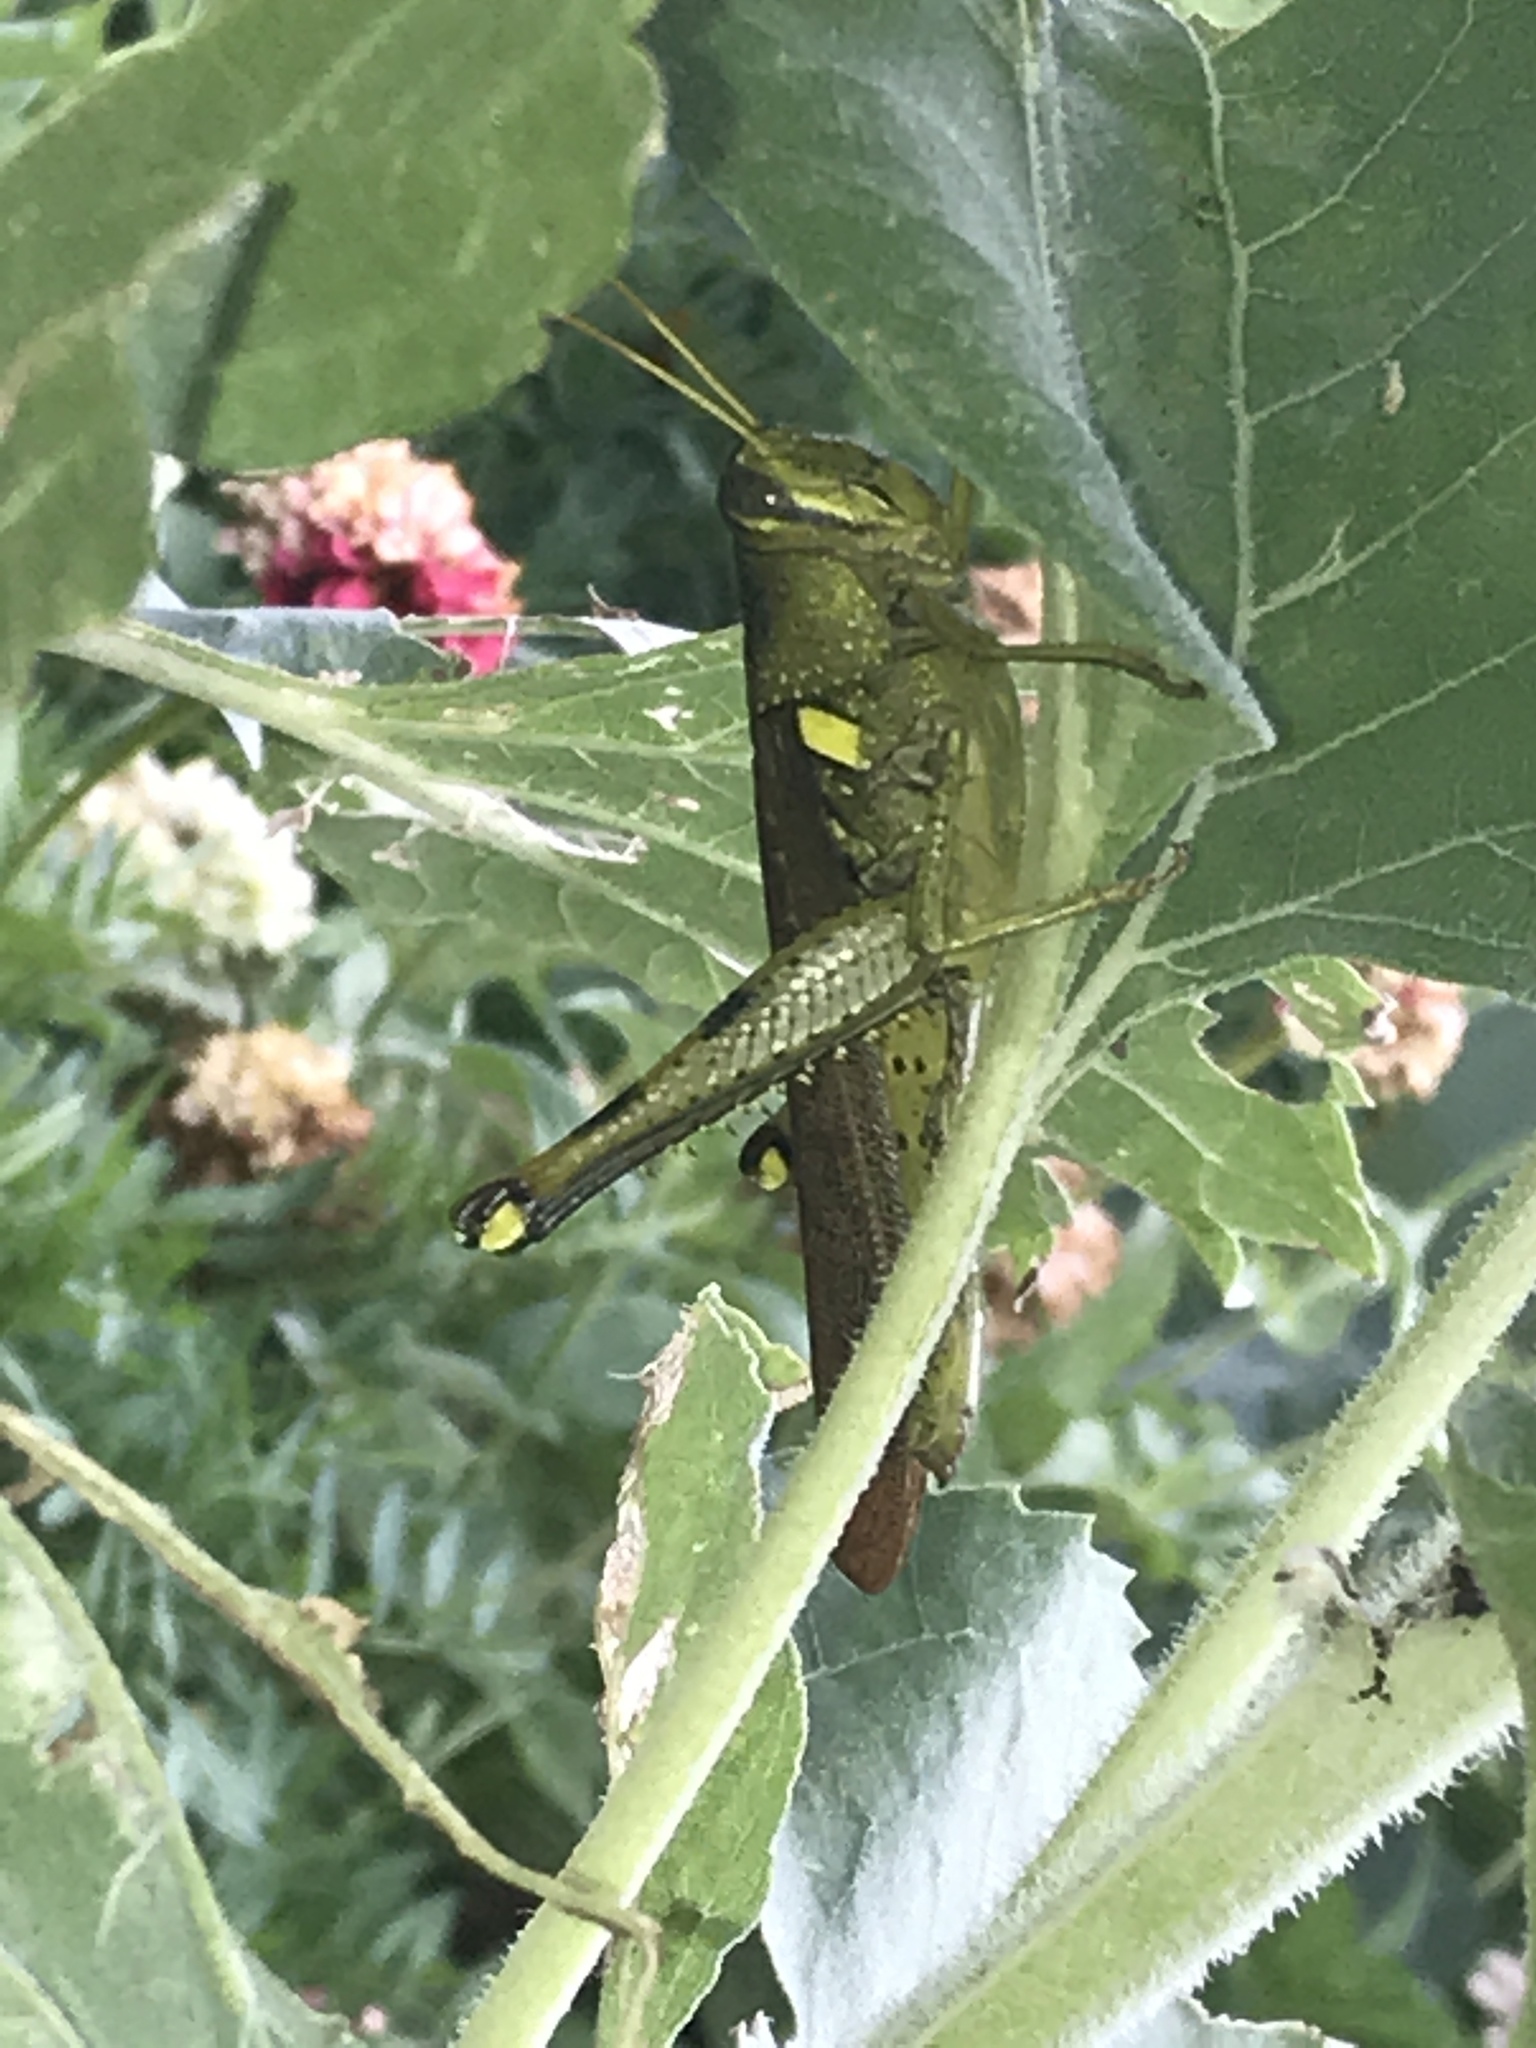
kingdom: Animalia
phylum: Arthropoda
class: Insecta
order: Orthoptera
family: Acrididae
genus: Schistocerca
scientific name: Schistocerca obscura
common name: Obscure bird grasshopper
